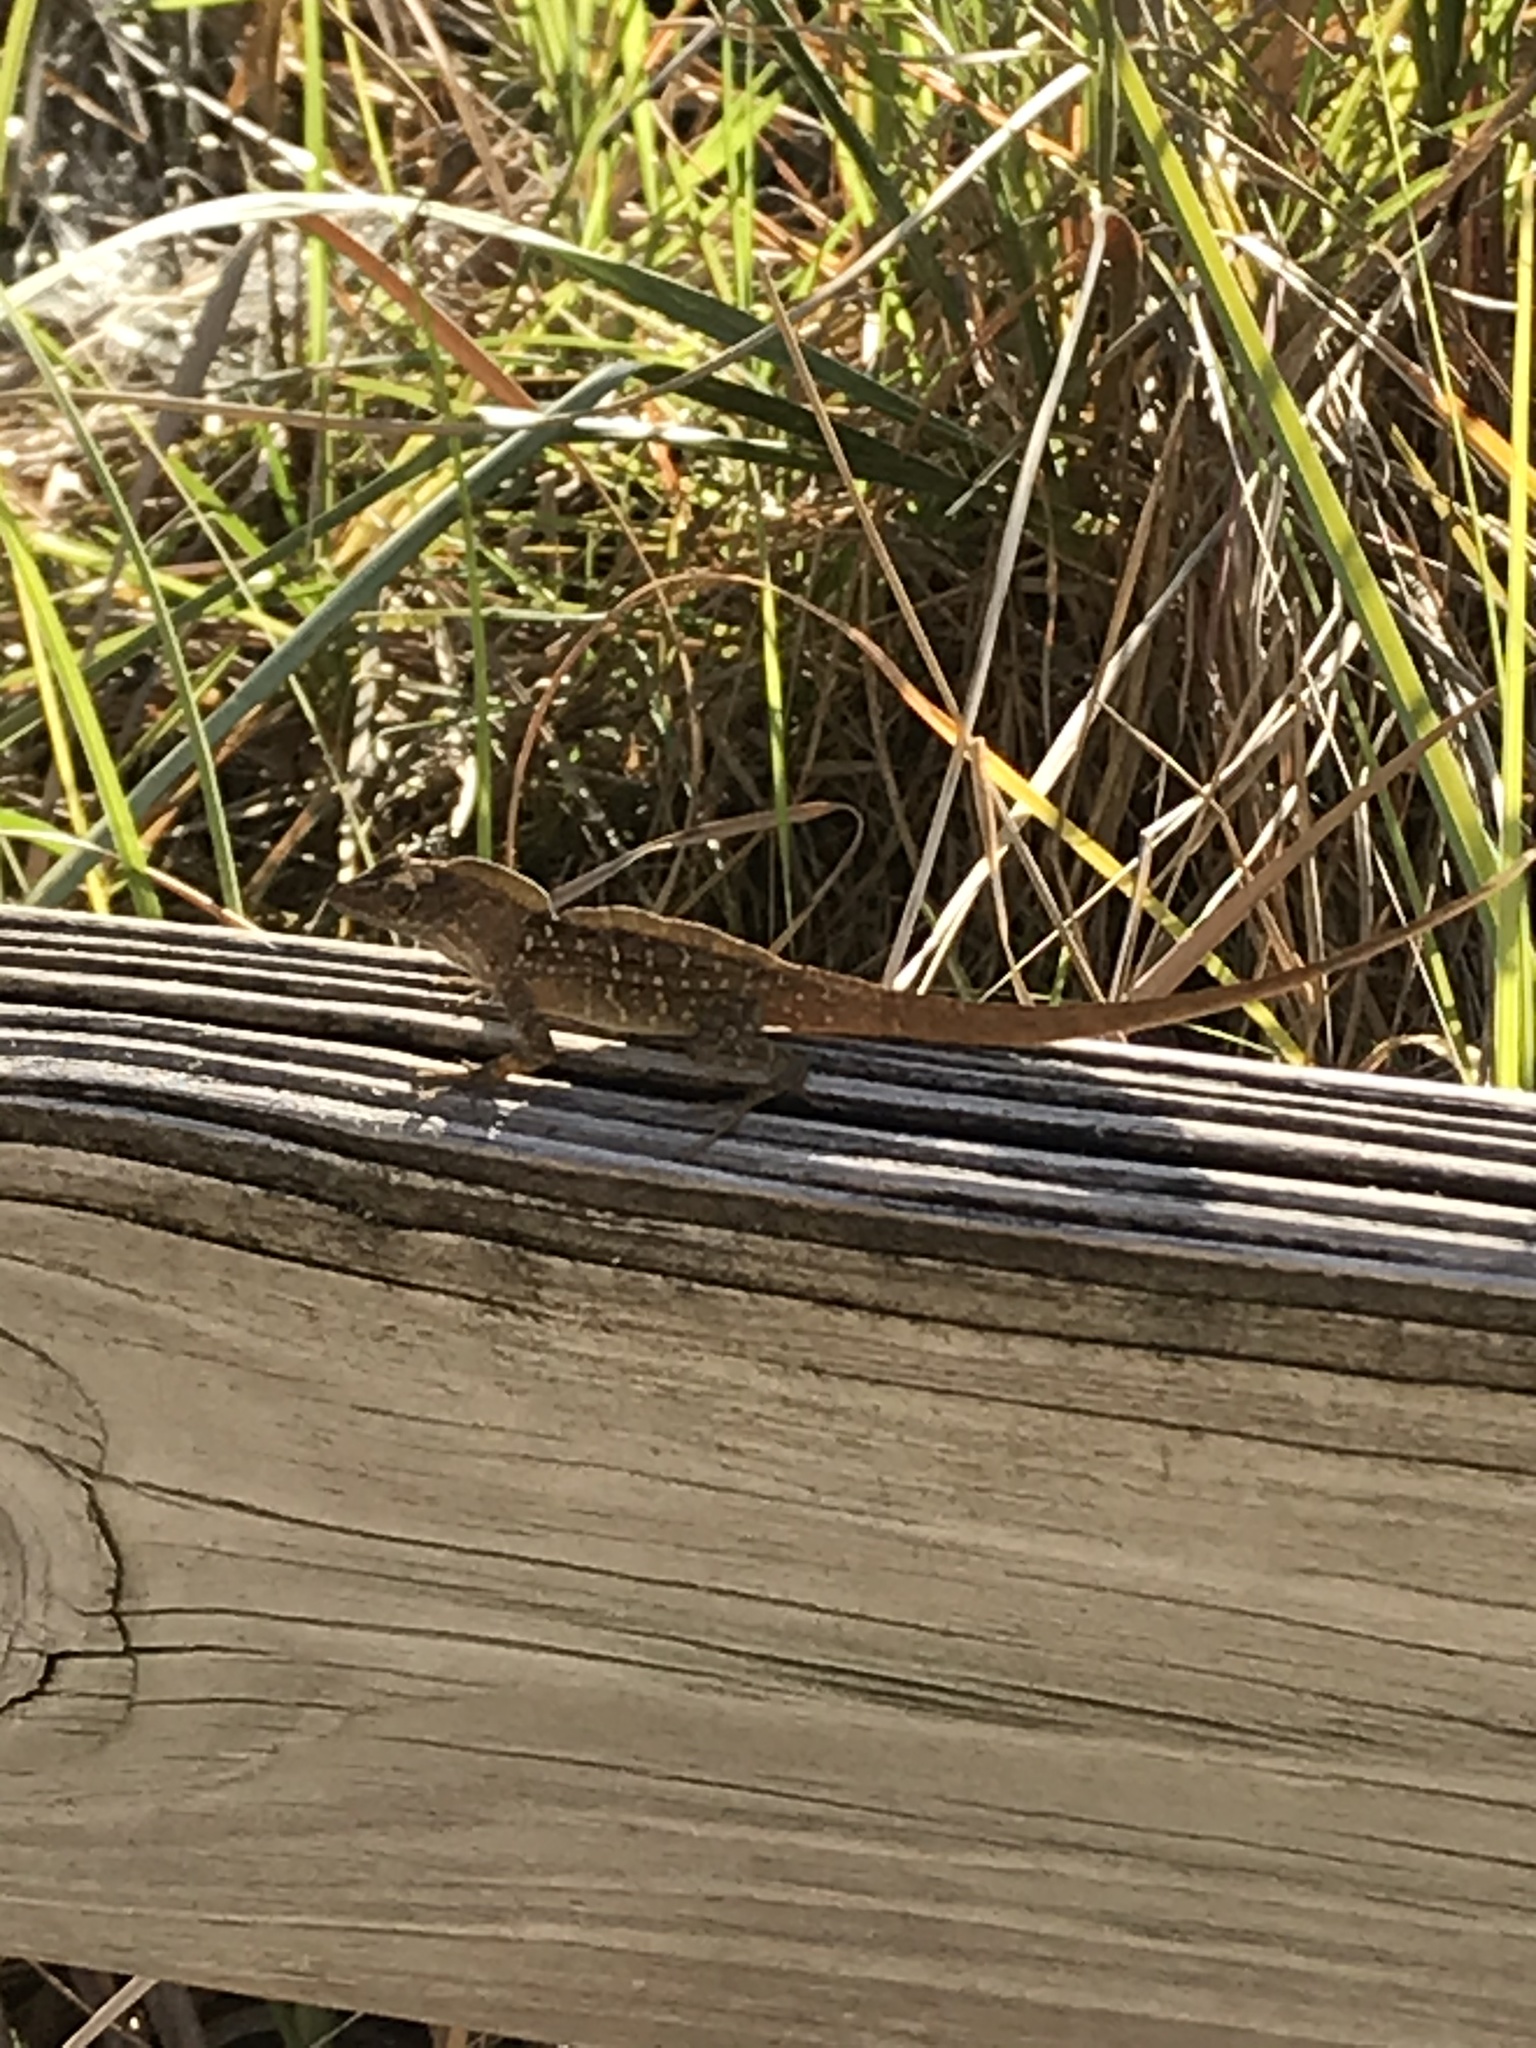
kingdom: Animalia
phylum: Chordata
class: Squamata
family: Dactyloidae
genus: Anolis
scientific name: Anolis sagrei
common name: Brown anole
